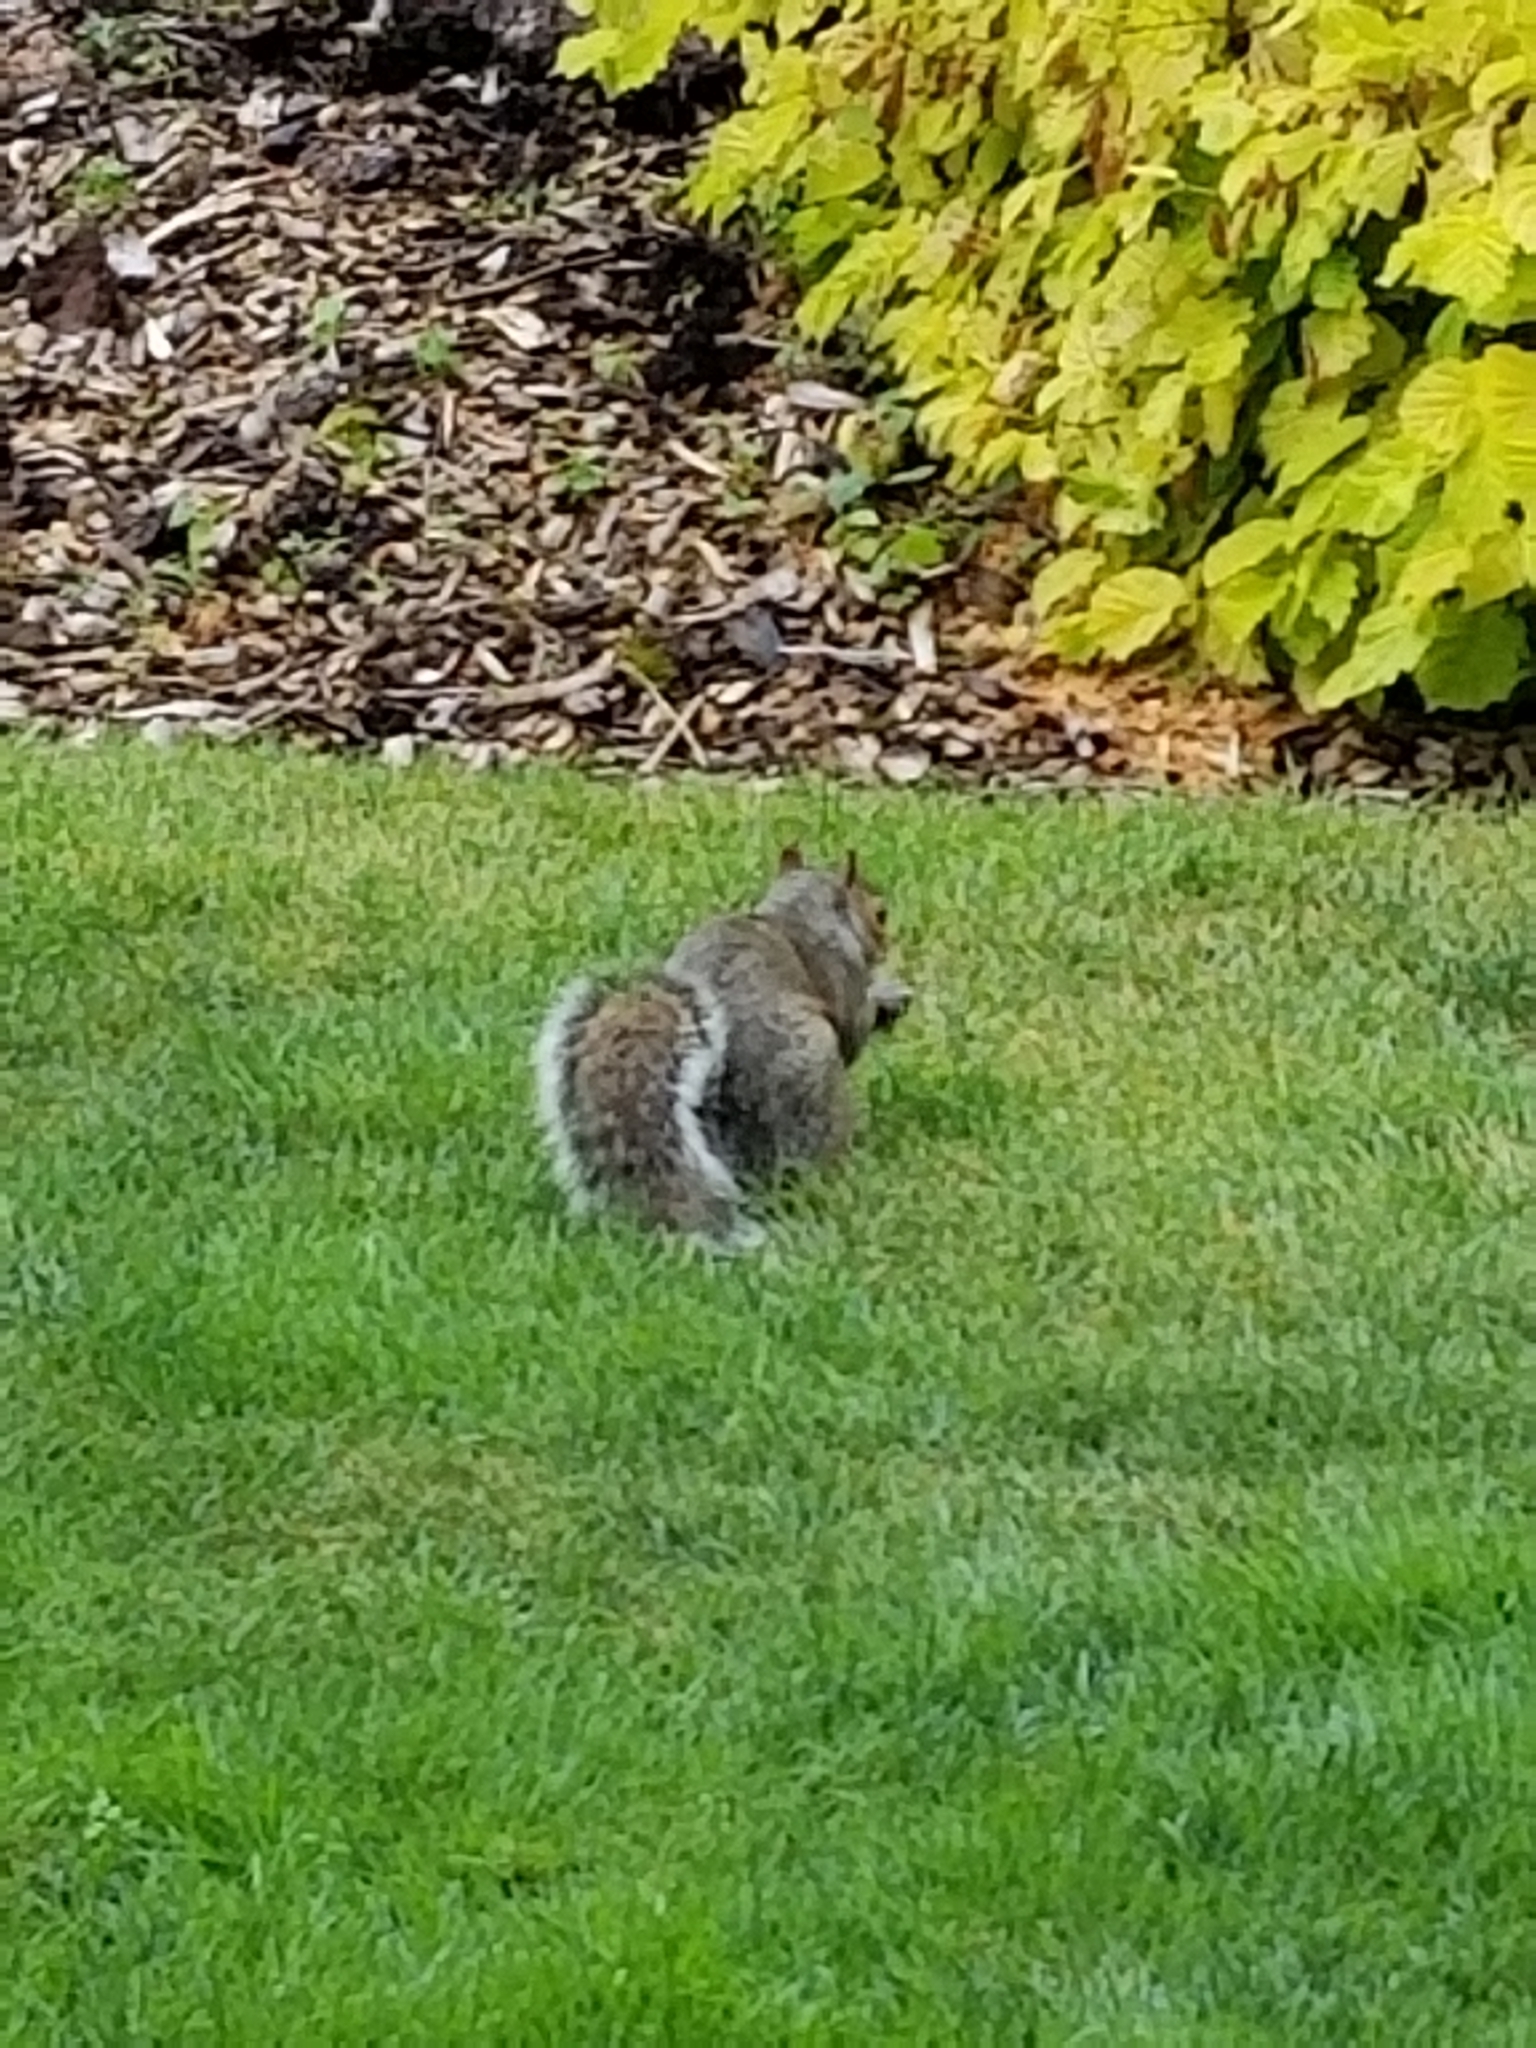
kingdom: Animalia
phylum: Chordata
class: Mammalia
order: Rodentia
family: Sciuridae
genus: Sciurus
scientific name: Sciurus carolinensis
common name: Eastern gray squirrel
